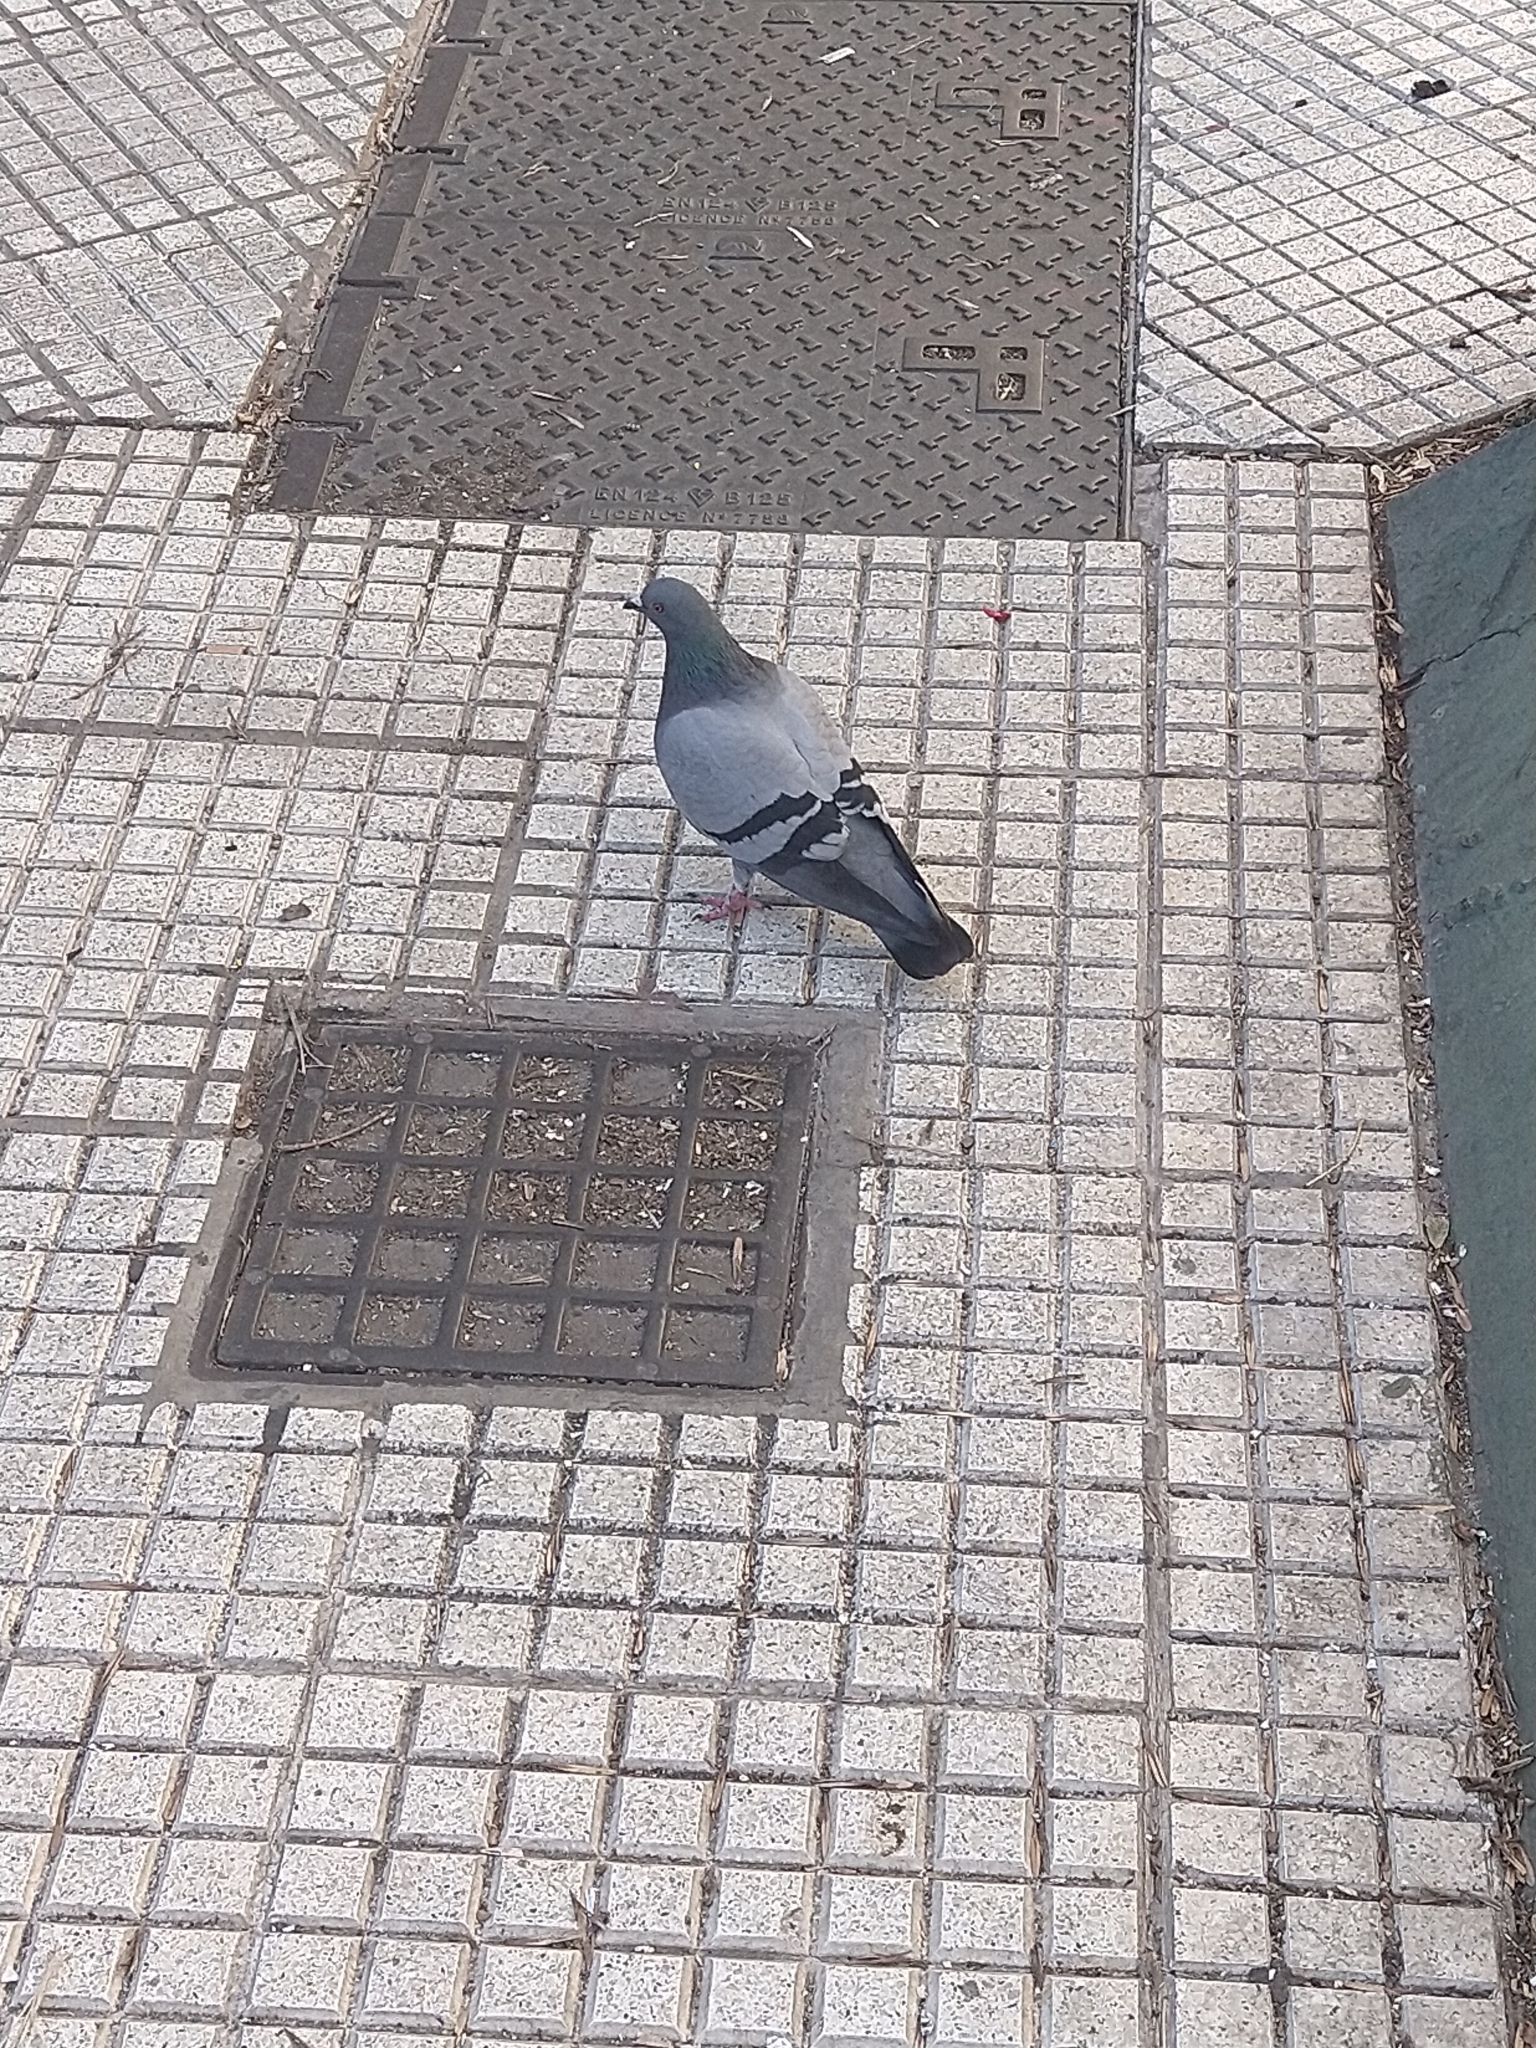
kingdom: Animalia
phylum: Chordata
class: Aves
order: Columbiformes
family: Columbidae
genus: Columba
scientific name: Columba livia
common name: Rock pigeon
